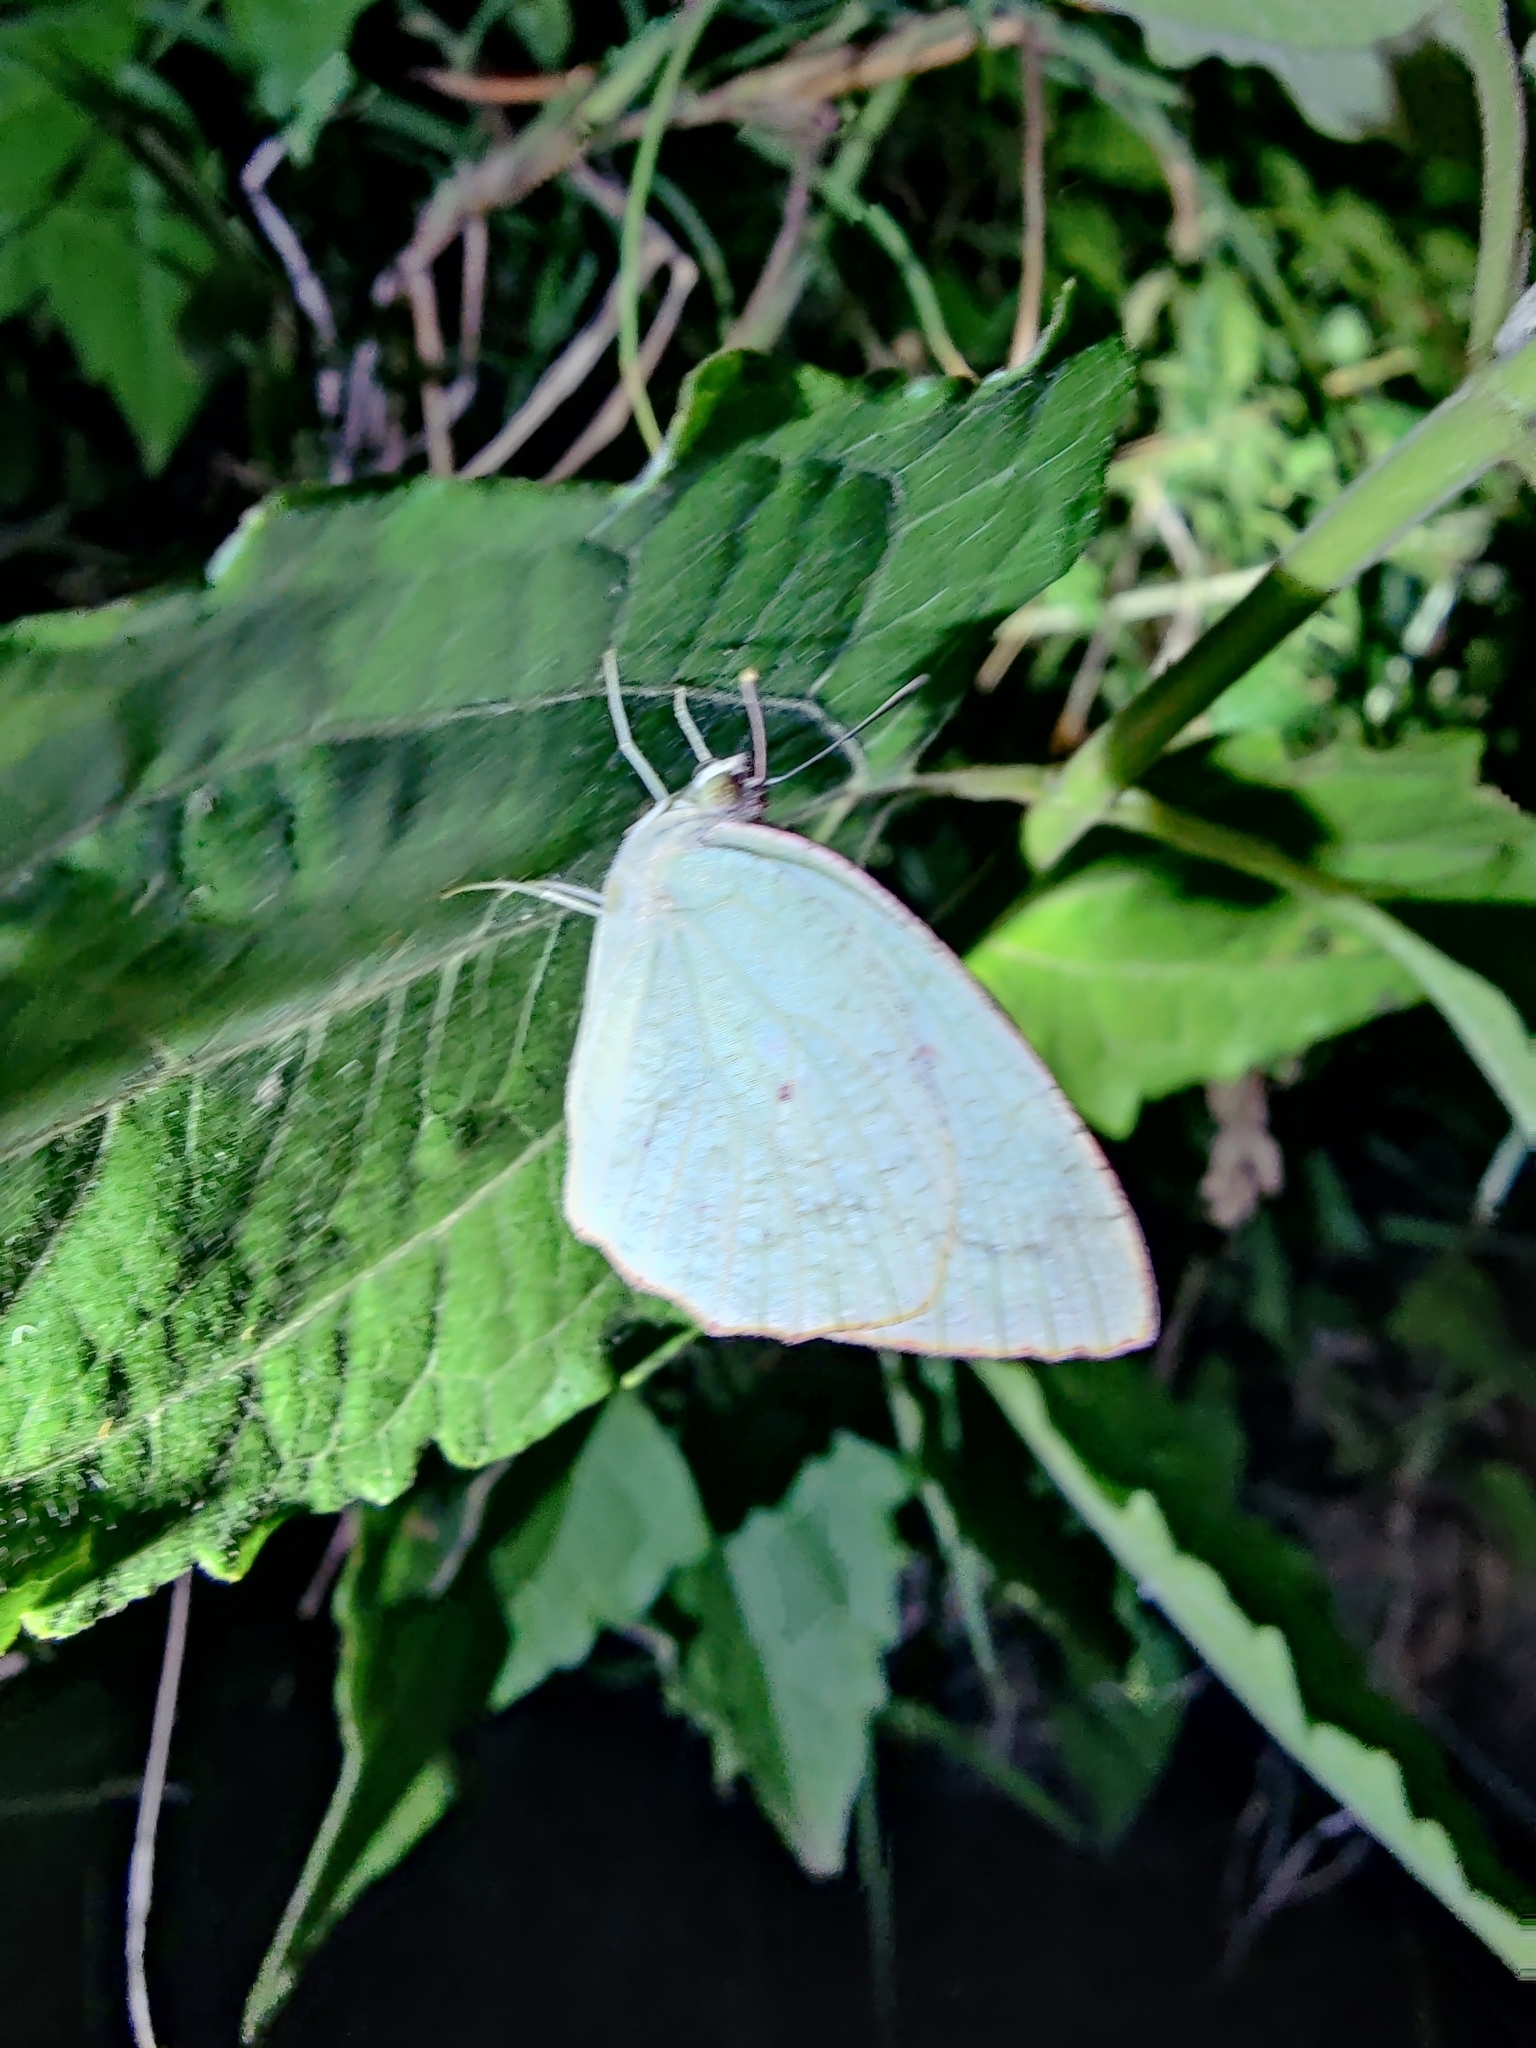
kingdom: Animalia
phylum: Arthropoda
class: Insecta
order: Lepidoptera
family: Pieridae
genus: Catopsilia
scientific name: Catopsilia pyranthe
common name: Mottled emigrant
